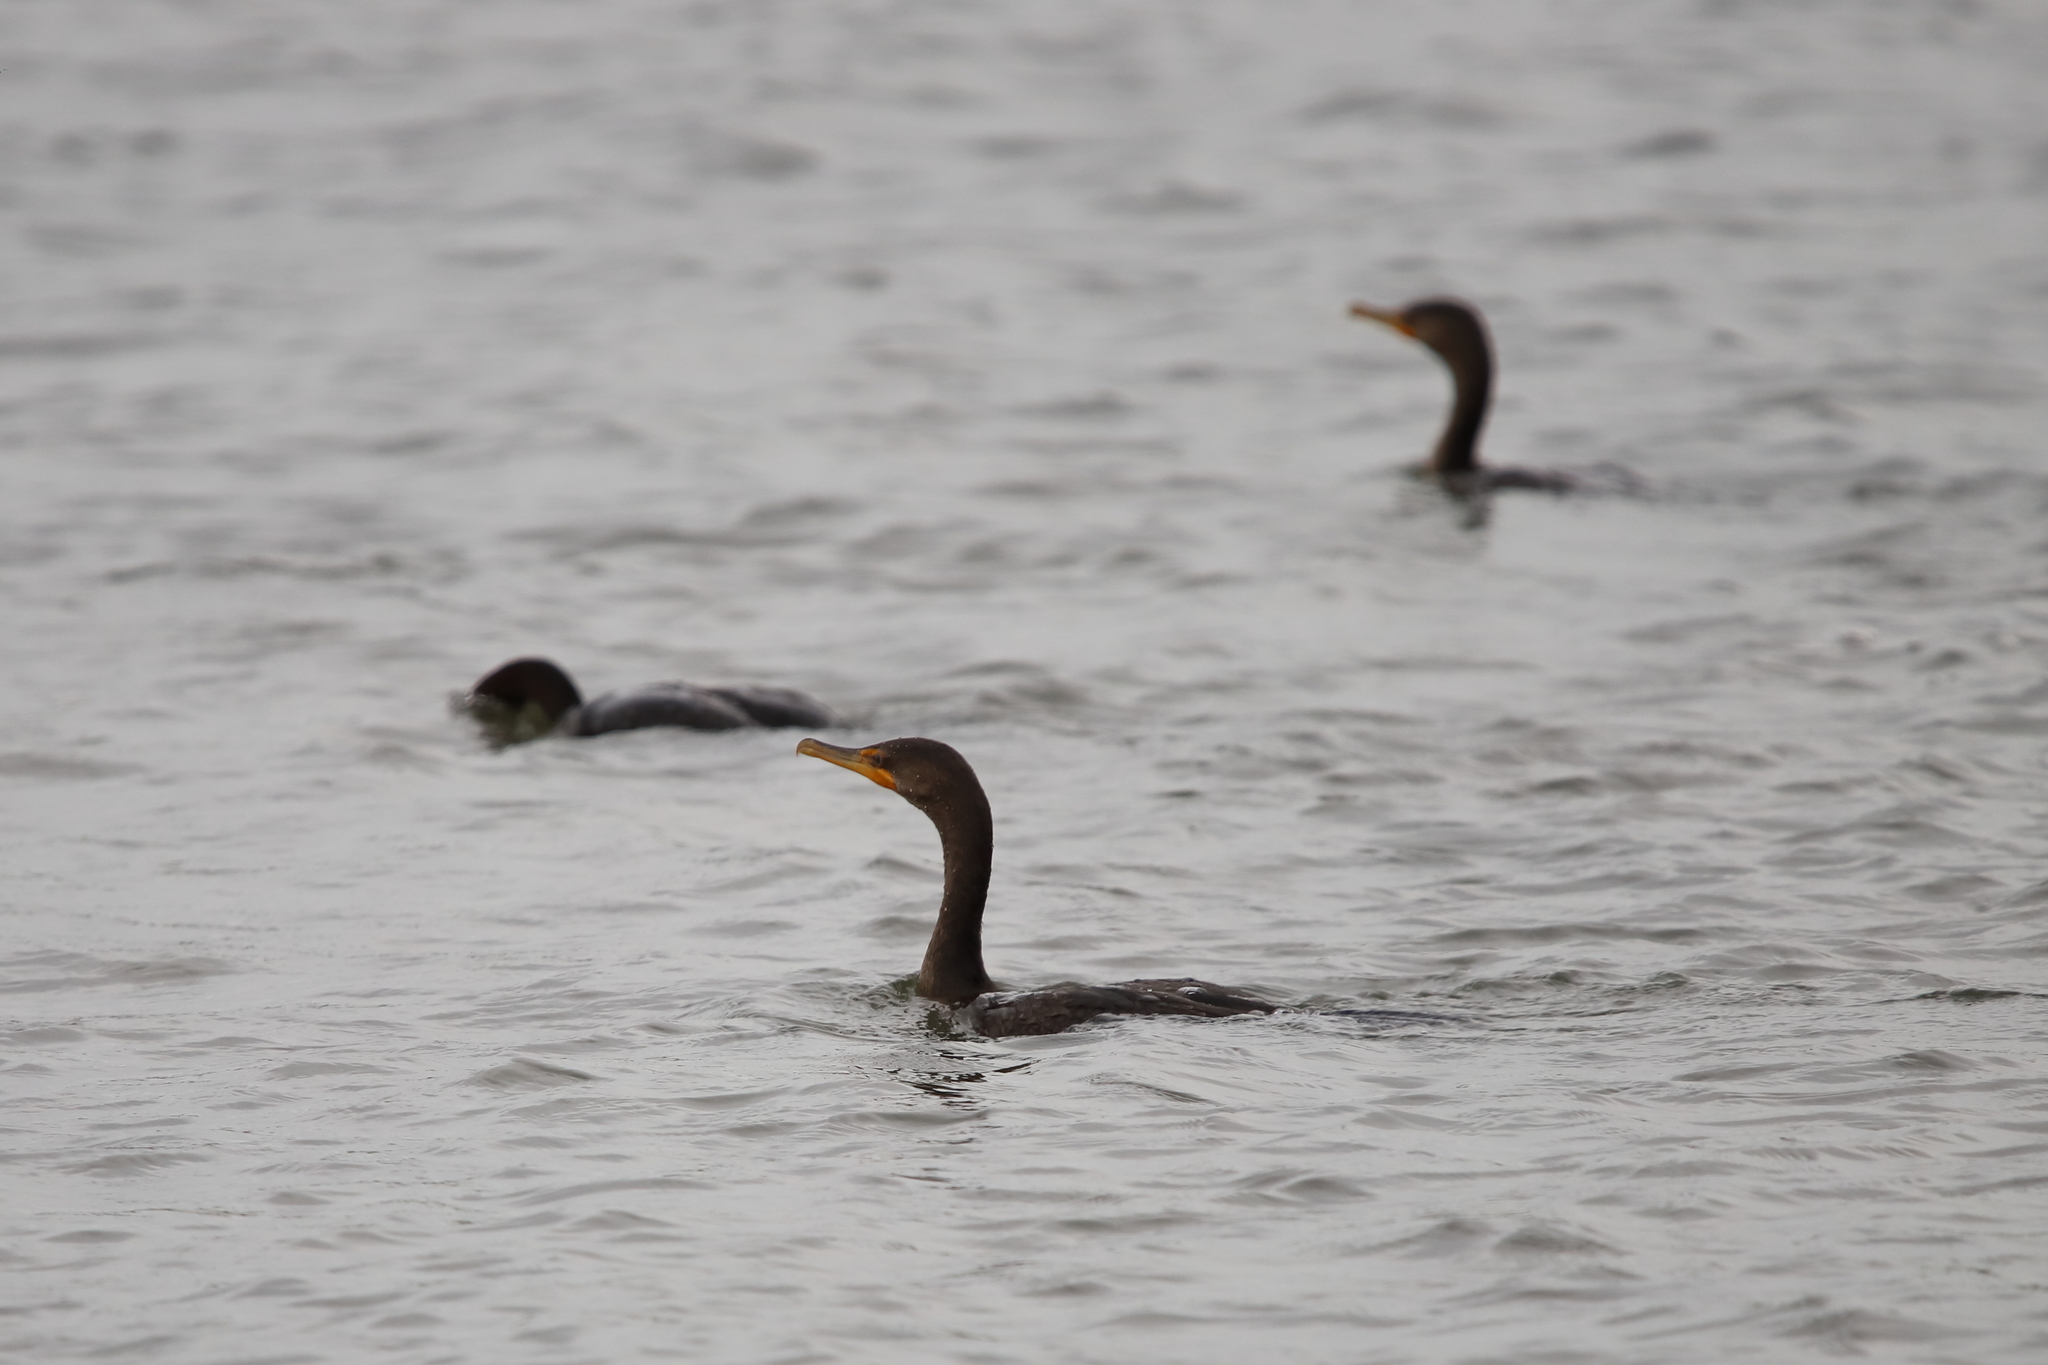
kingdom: Animalia
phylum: Chordata
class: Aves
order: Suliformes
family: Phalacrocoracidae
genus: Phalacrocorax
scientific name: Phalacrocorax auritus
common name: Double-crested cormorant
